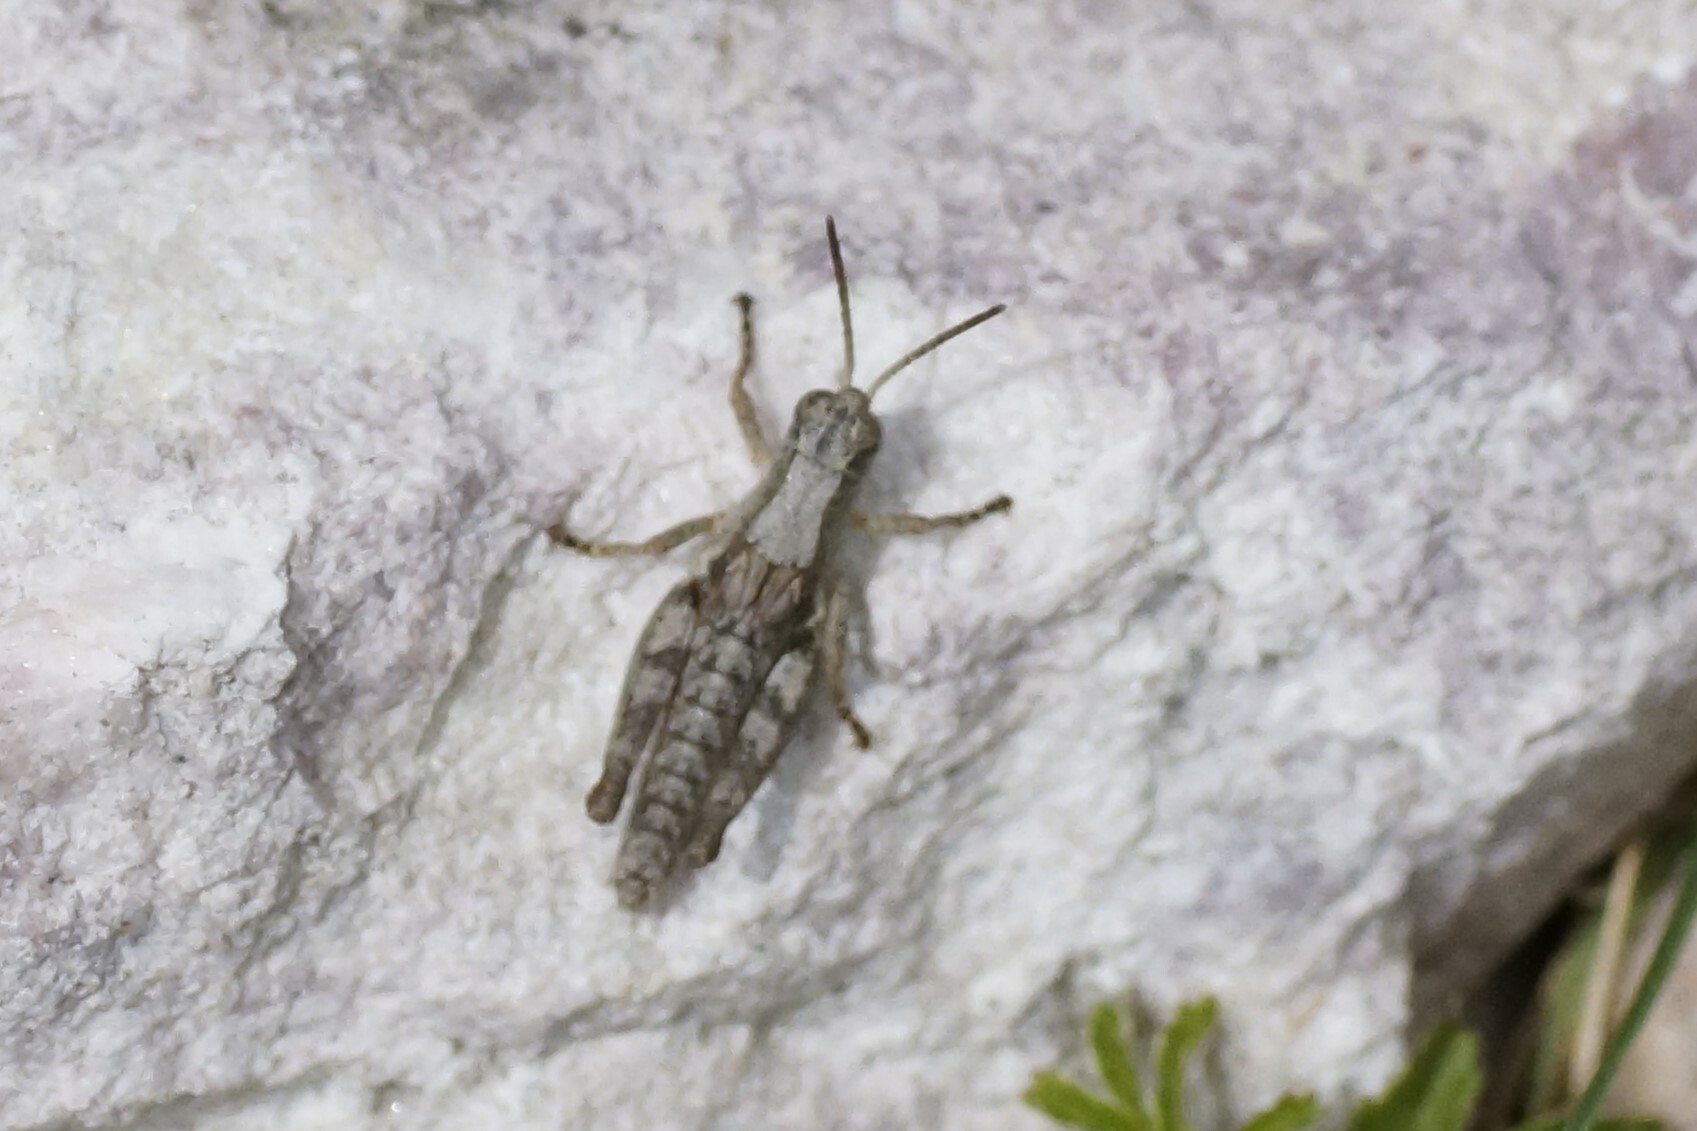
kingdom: Animalia
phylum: Arthropoda
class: Insecta
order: Orthoptera
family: Acrididae
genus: Phaulacridium
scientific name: Phaulacridium vittatum
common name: Wingless grasshopper
